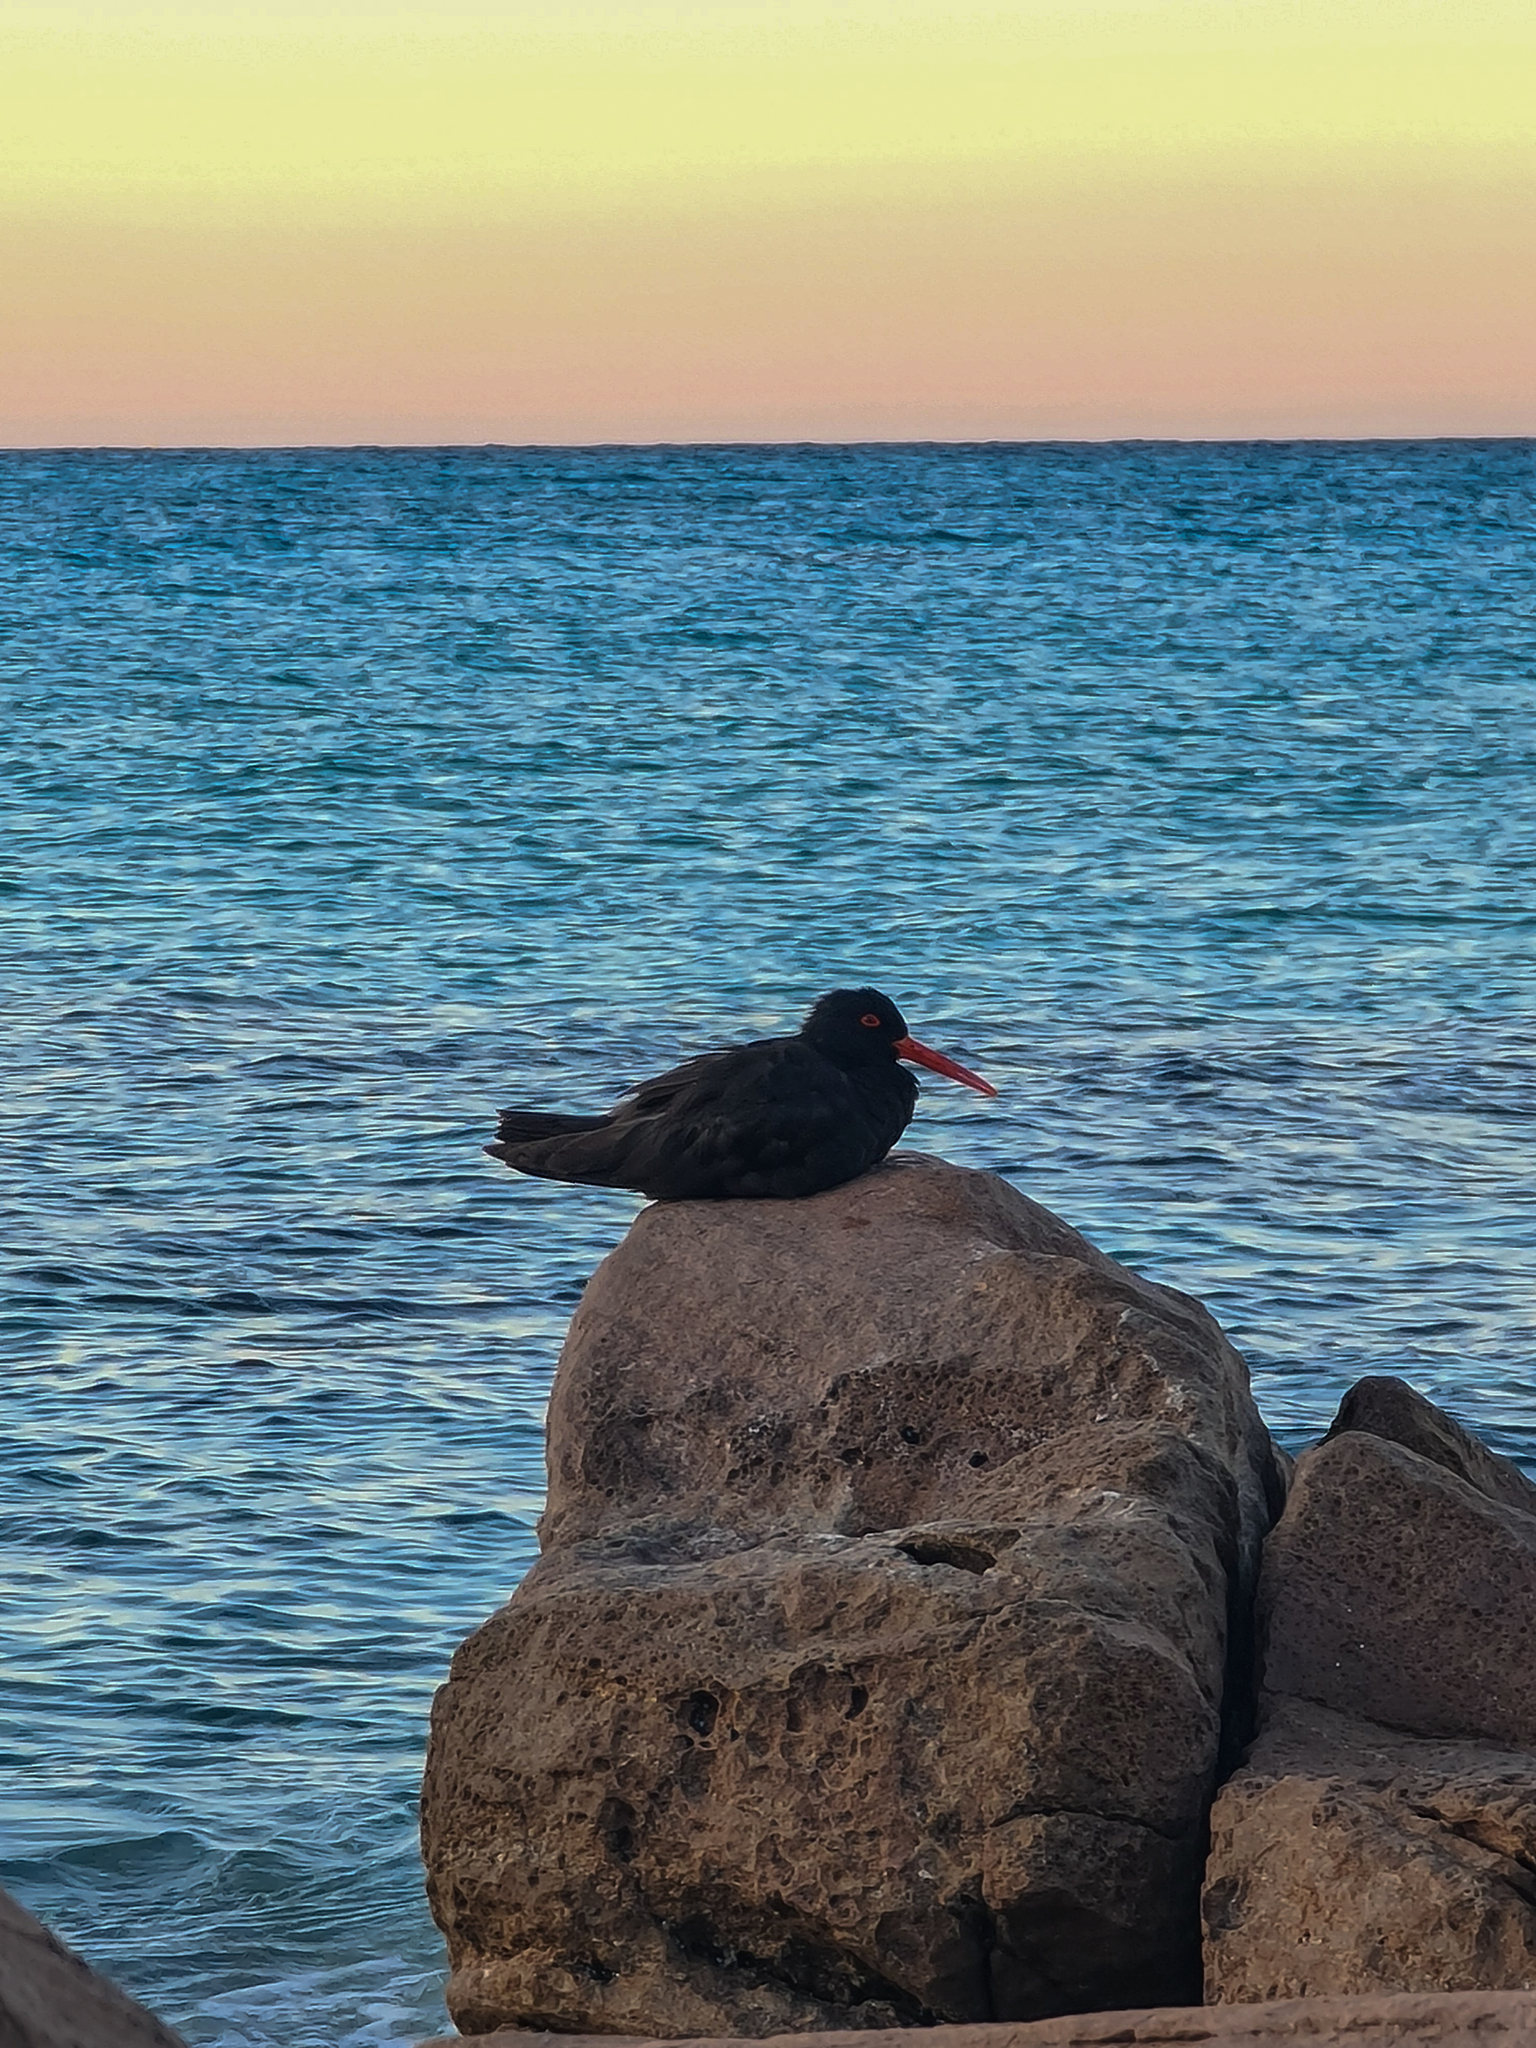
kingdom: Animalia
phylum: Chordata
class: Aves
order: Charadriiformes
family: Haematopodidae
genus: Haematopus
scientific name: Haematopus fuliginosus
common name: Sooty oystercatcher
